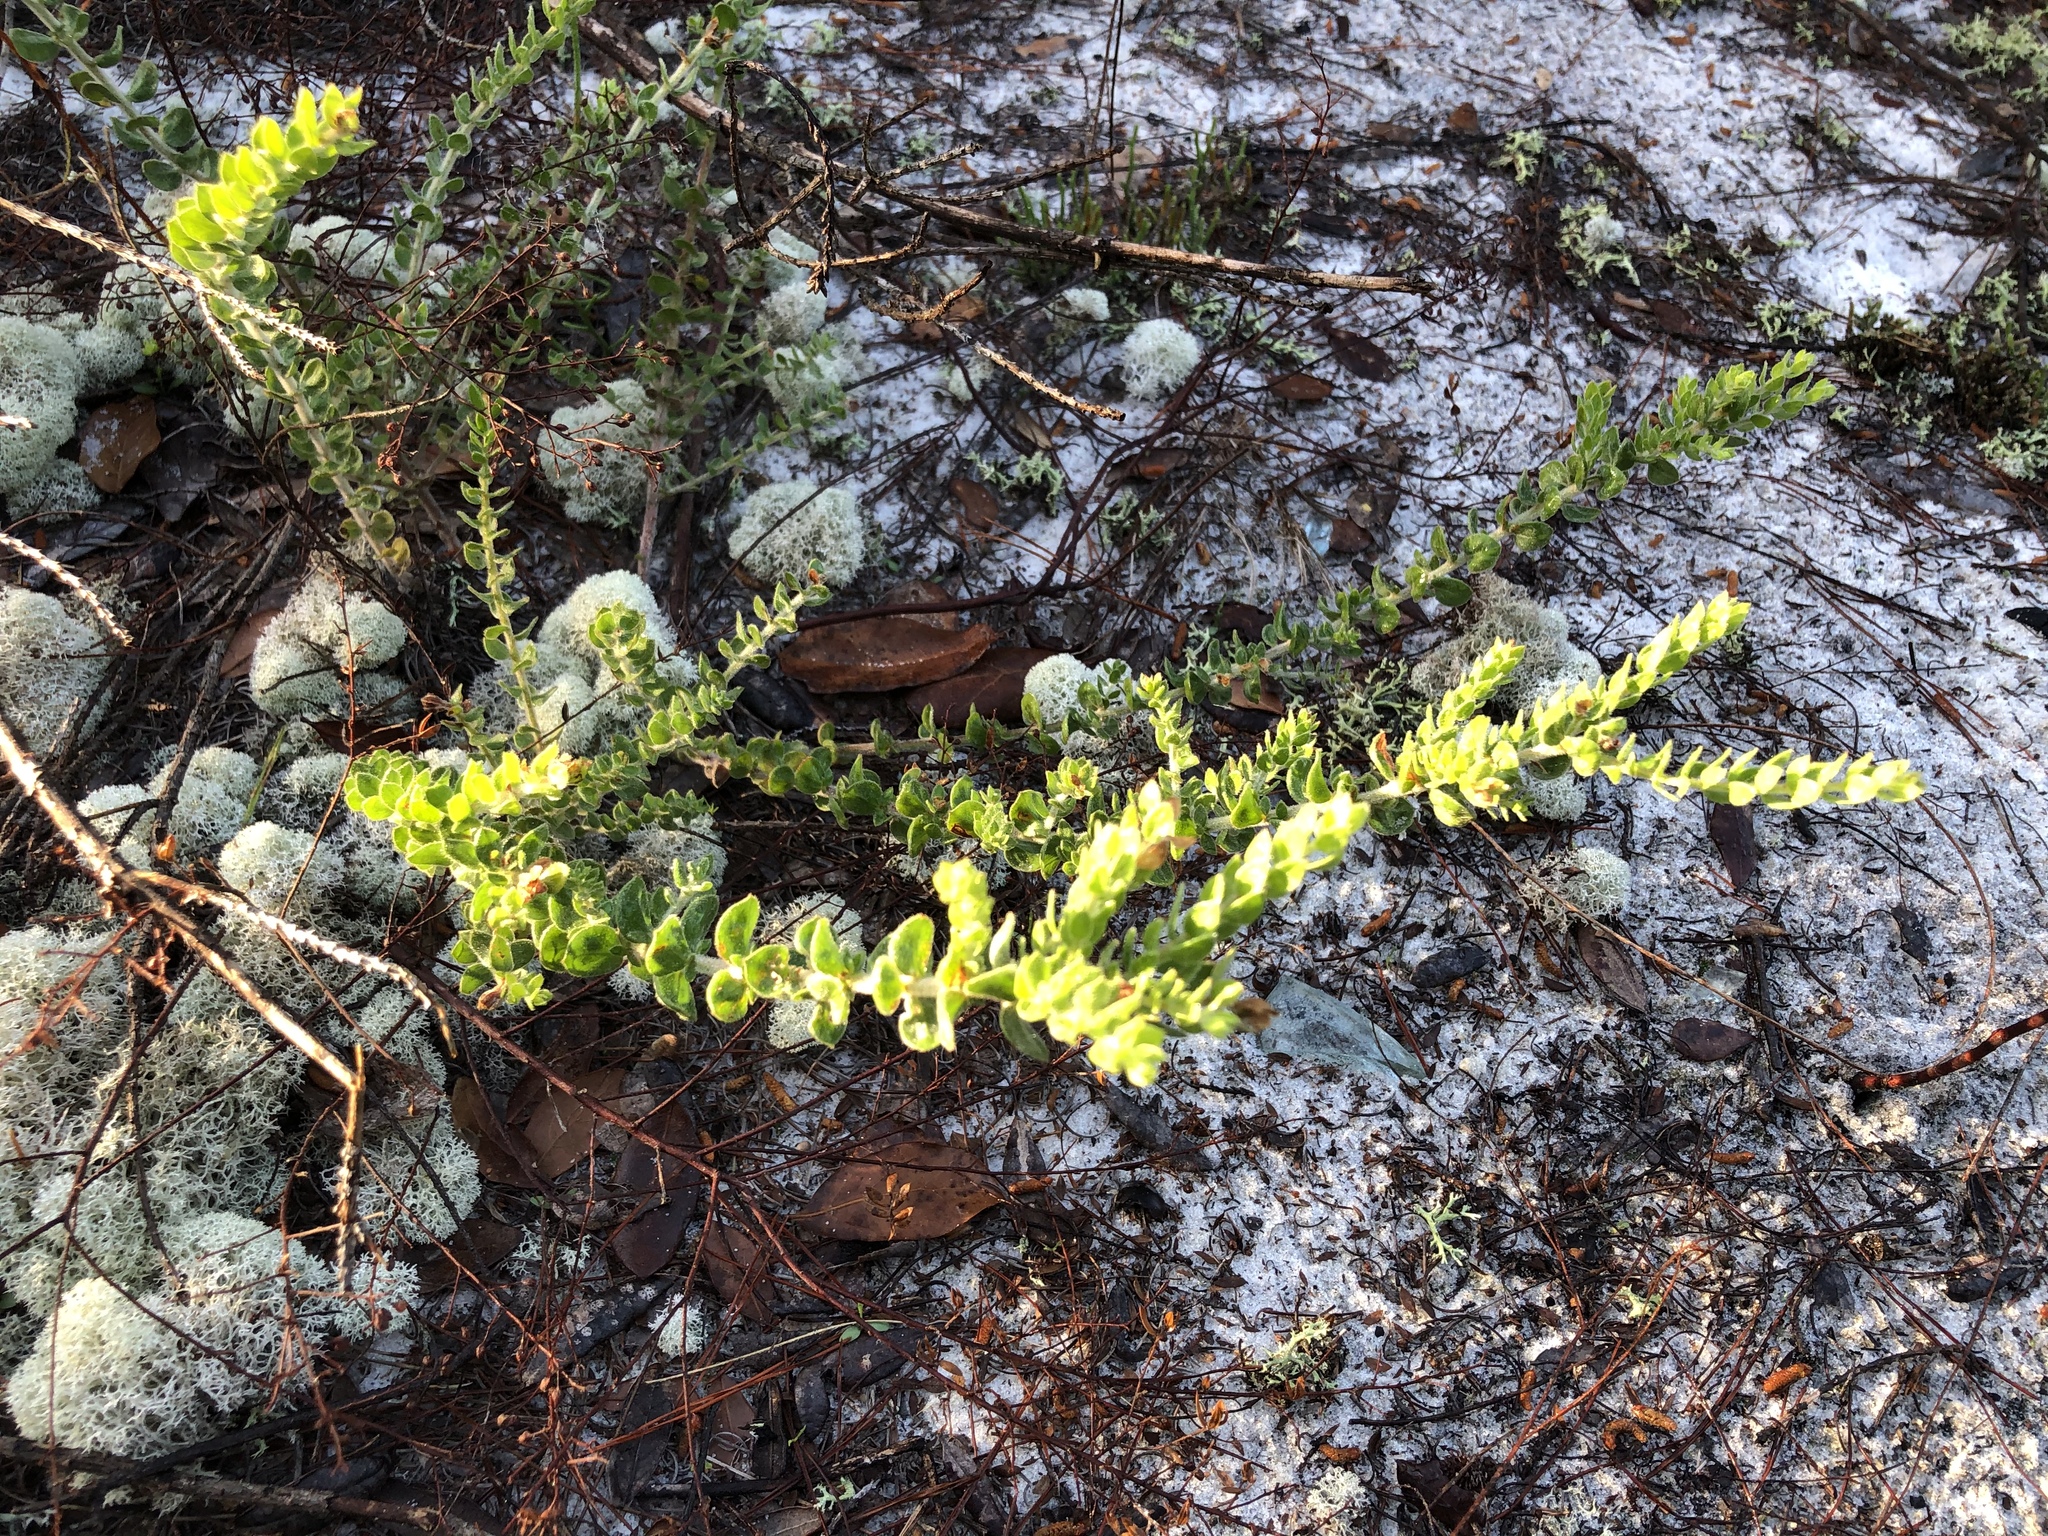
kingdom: Plantae
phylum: Tracheophyta
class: Magnoliopsida
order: Malvales
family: Cistaceae
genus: Lechea
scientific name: Lechea cernua
